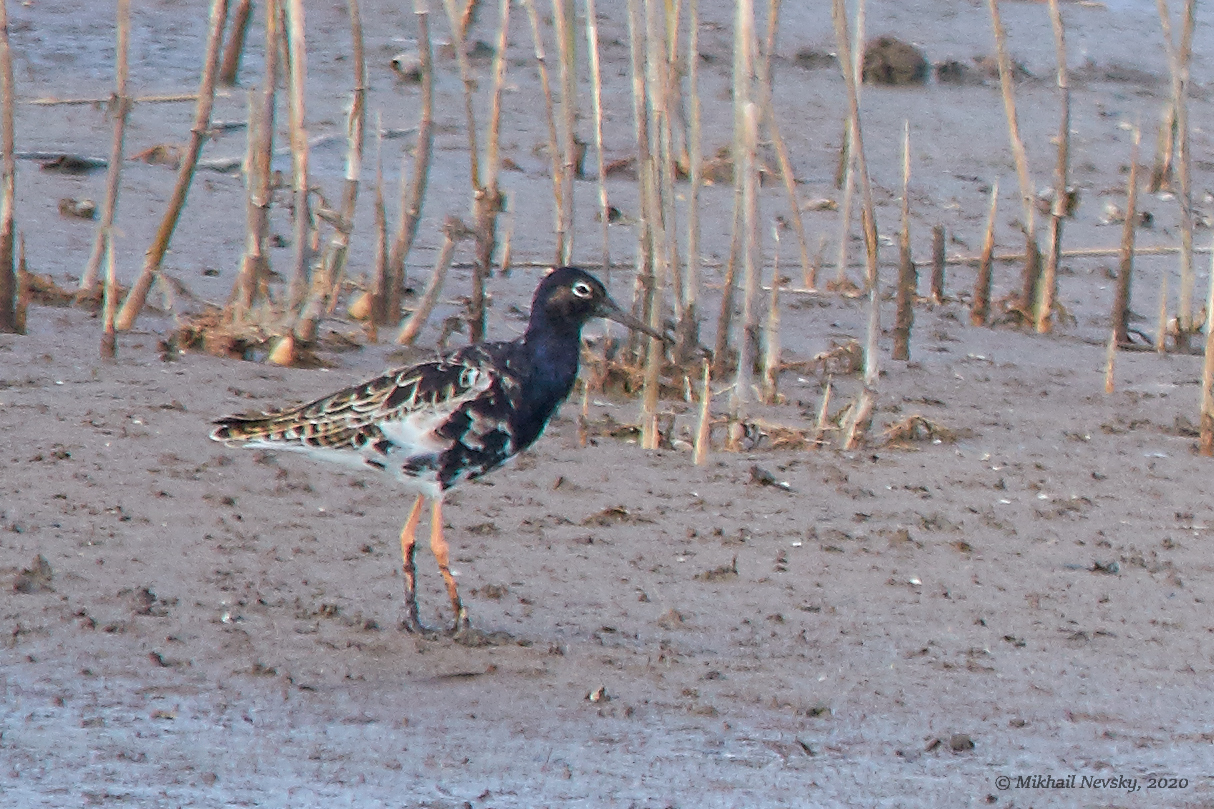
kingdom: Animalia
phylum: Chordata
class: Aves
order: Charadriiformes
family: Scolopacidae
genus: Calidris
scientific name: Calidris pugnax
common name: Ruff
